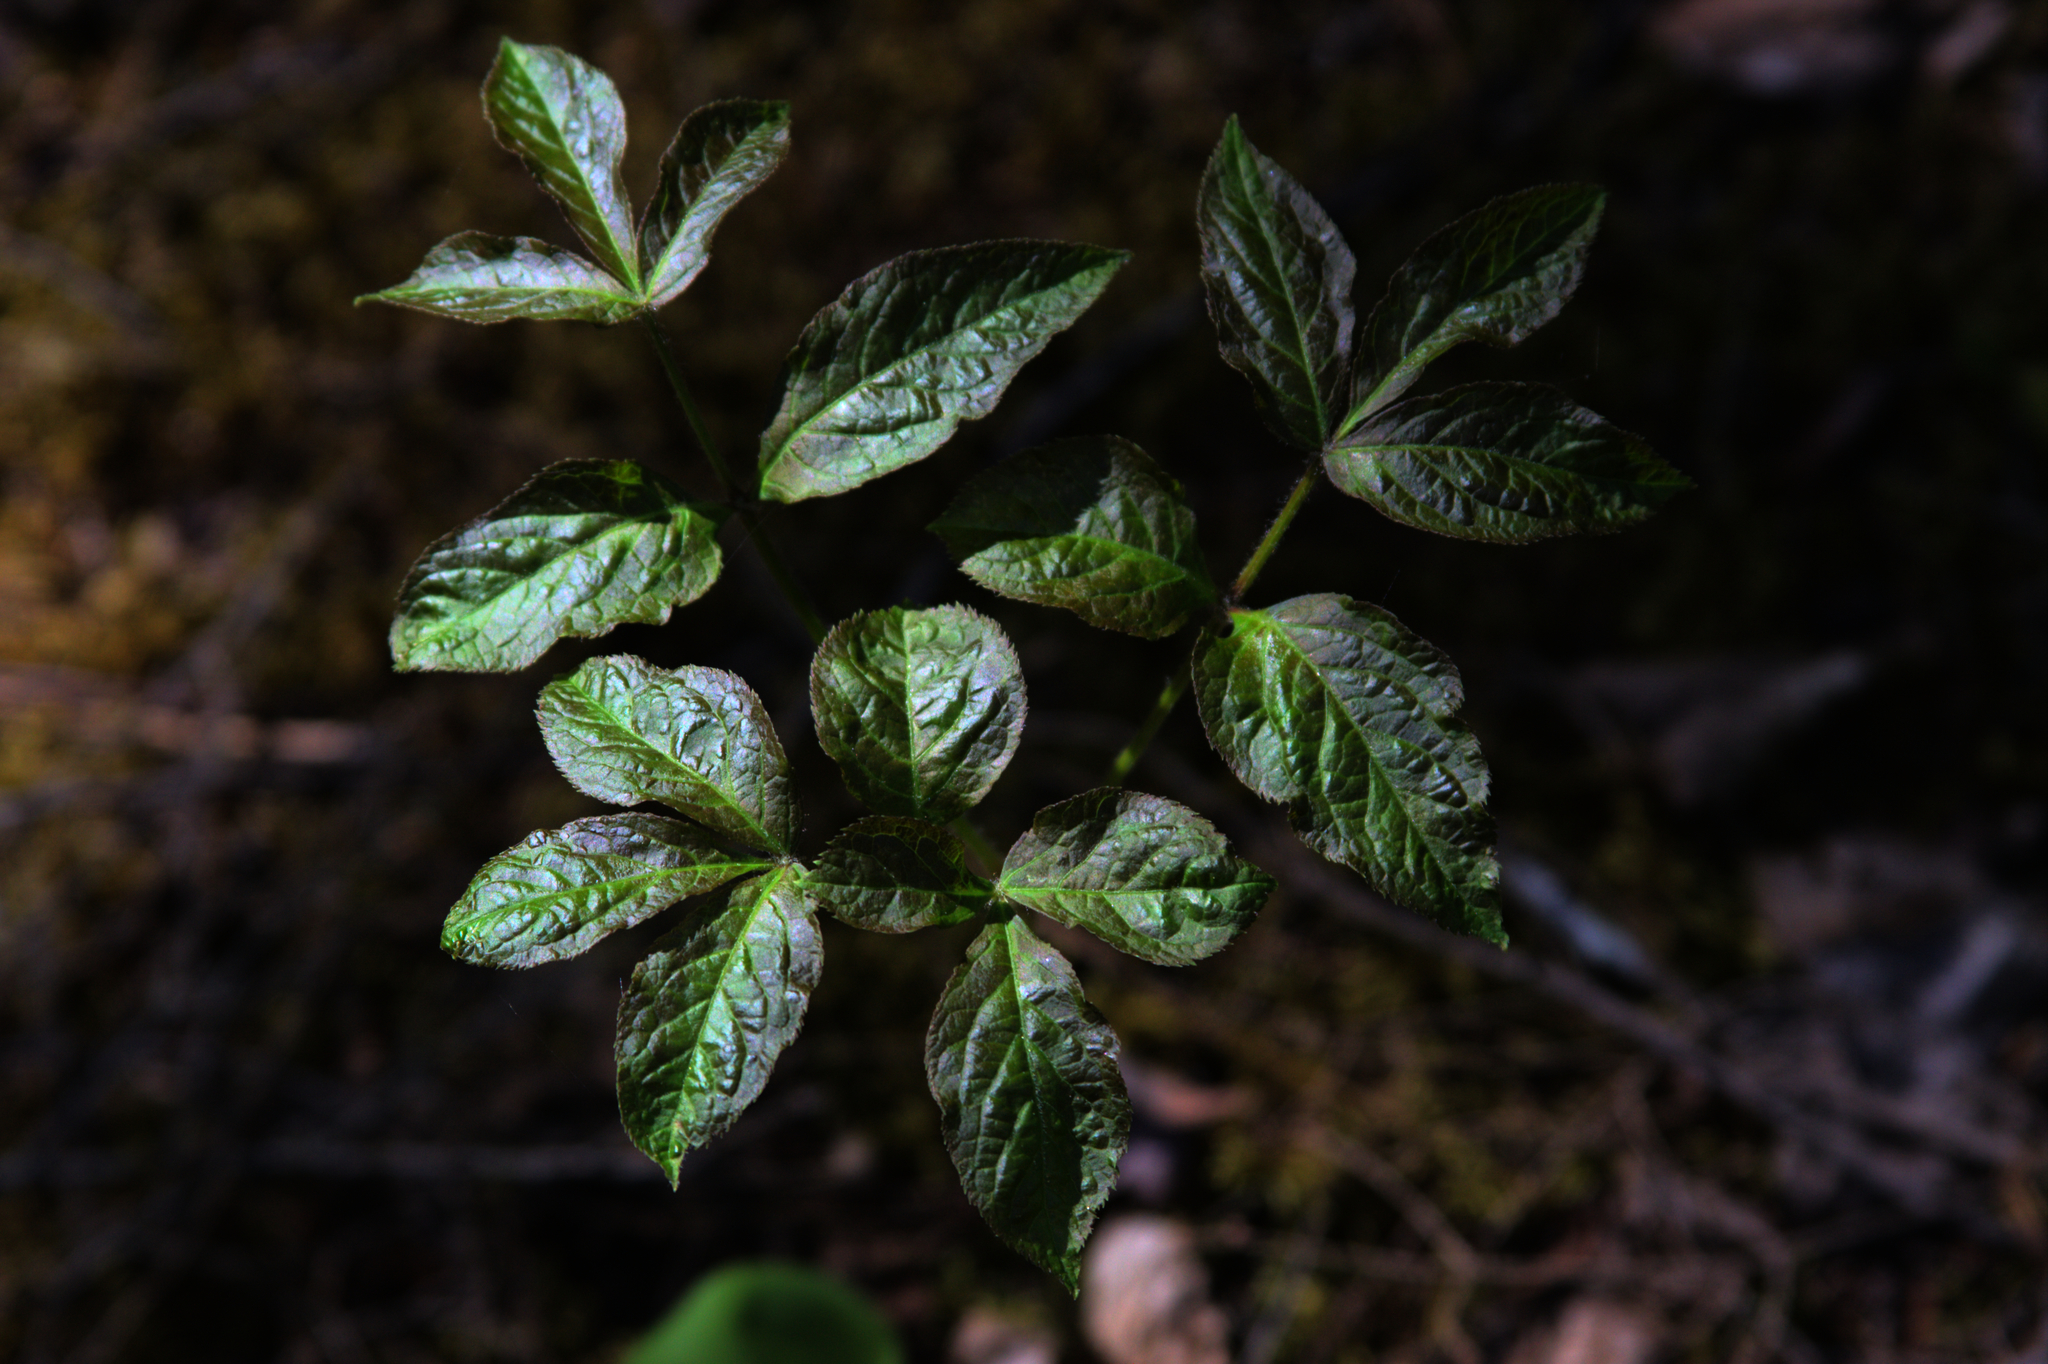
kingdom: Plantae
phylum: Tracheophyta
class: Magnoliopsida
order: Apiales
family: Araliaceae
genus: Aralia
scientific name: Aralia nudicaulis
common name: Wild sarsaparilla
